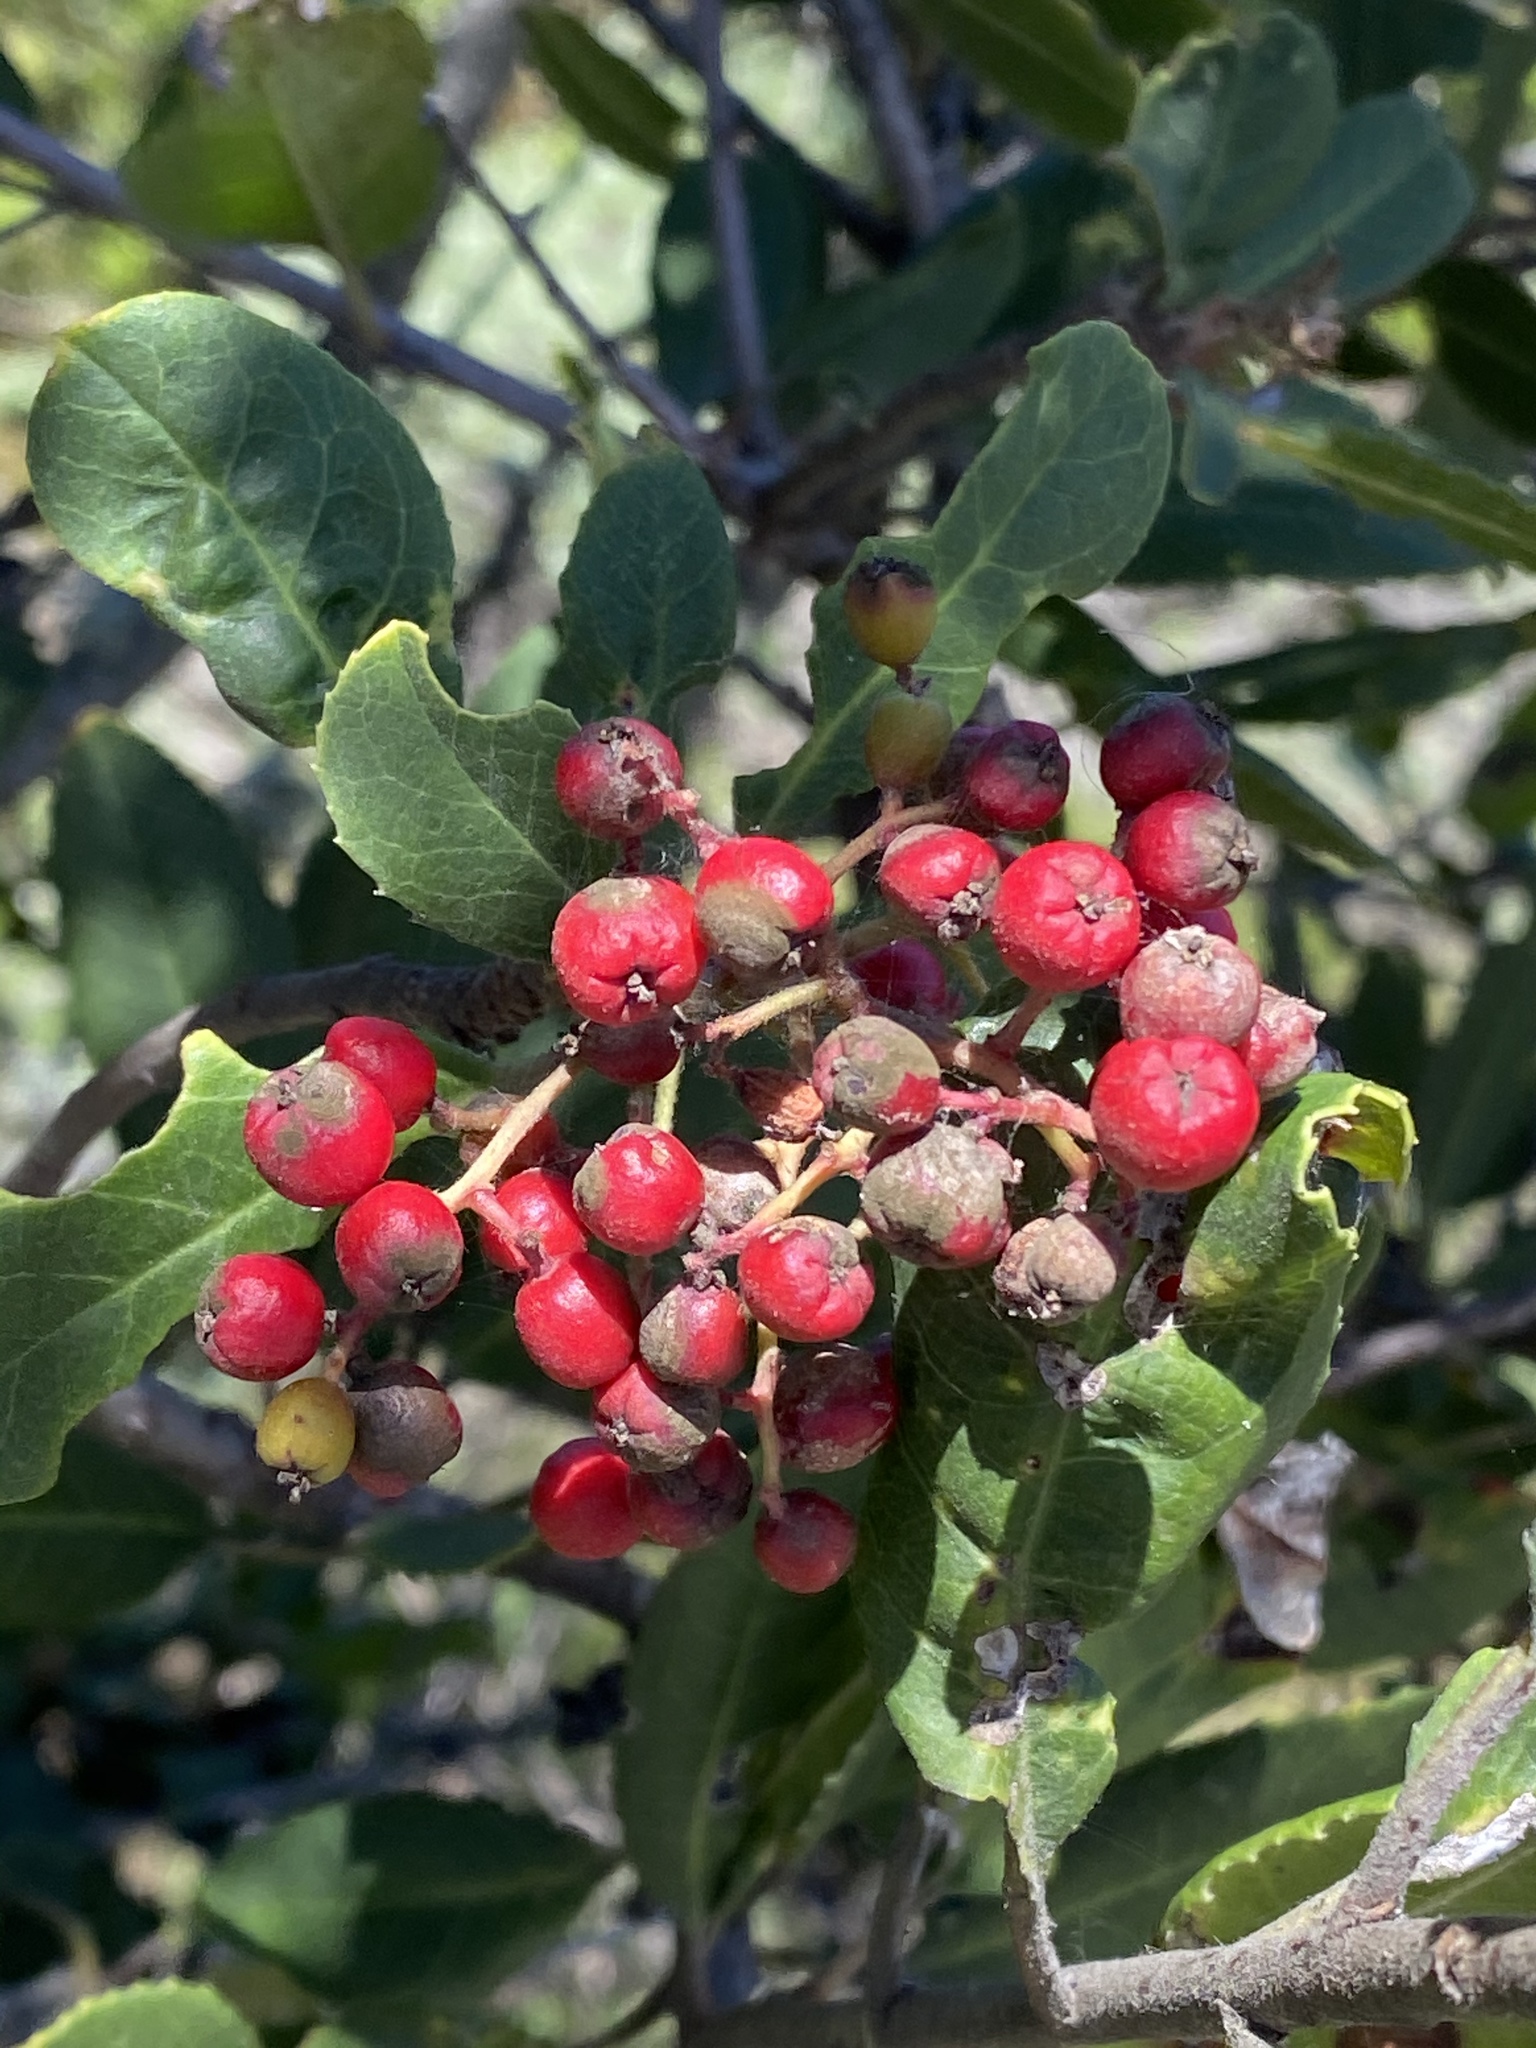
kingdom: Plantae
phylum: Tracheophyta
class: Magnoliopsida
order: Rosales
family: Rosaceae
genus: Heteromeles
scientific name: Heteromeles arbutifolia
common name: California-holly
